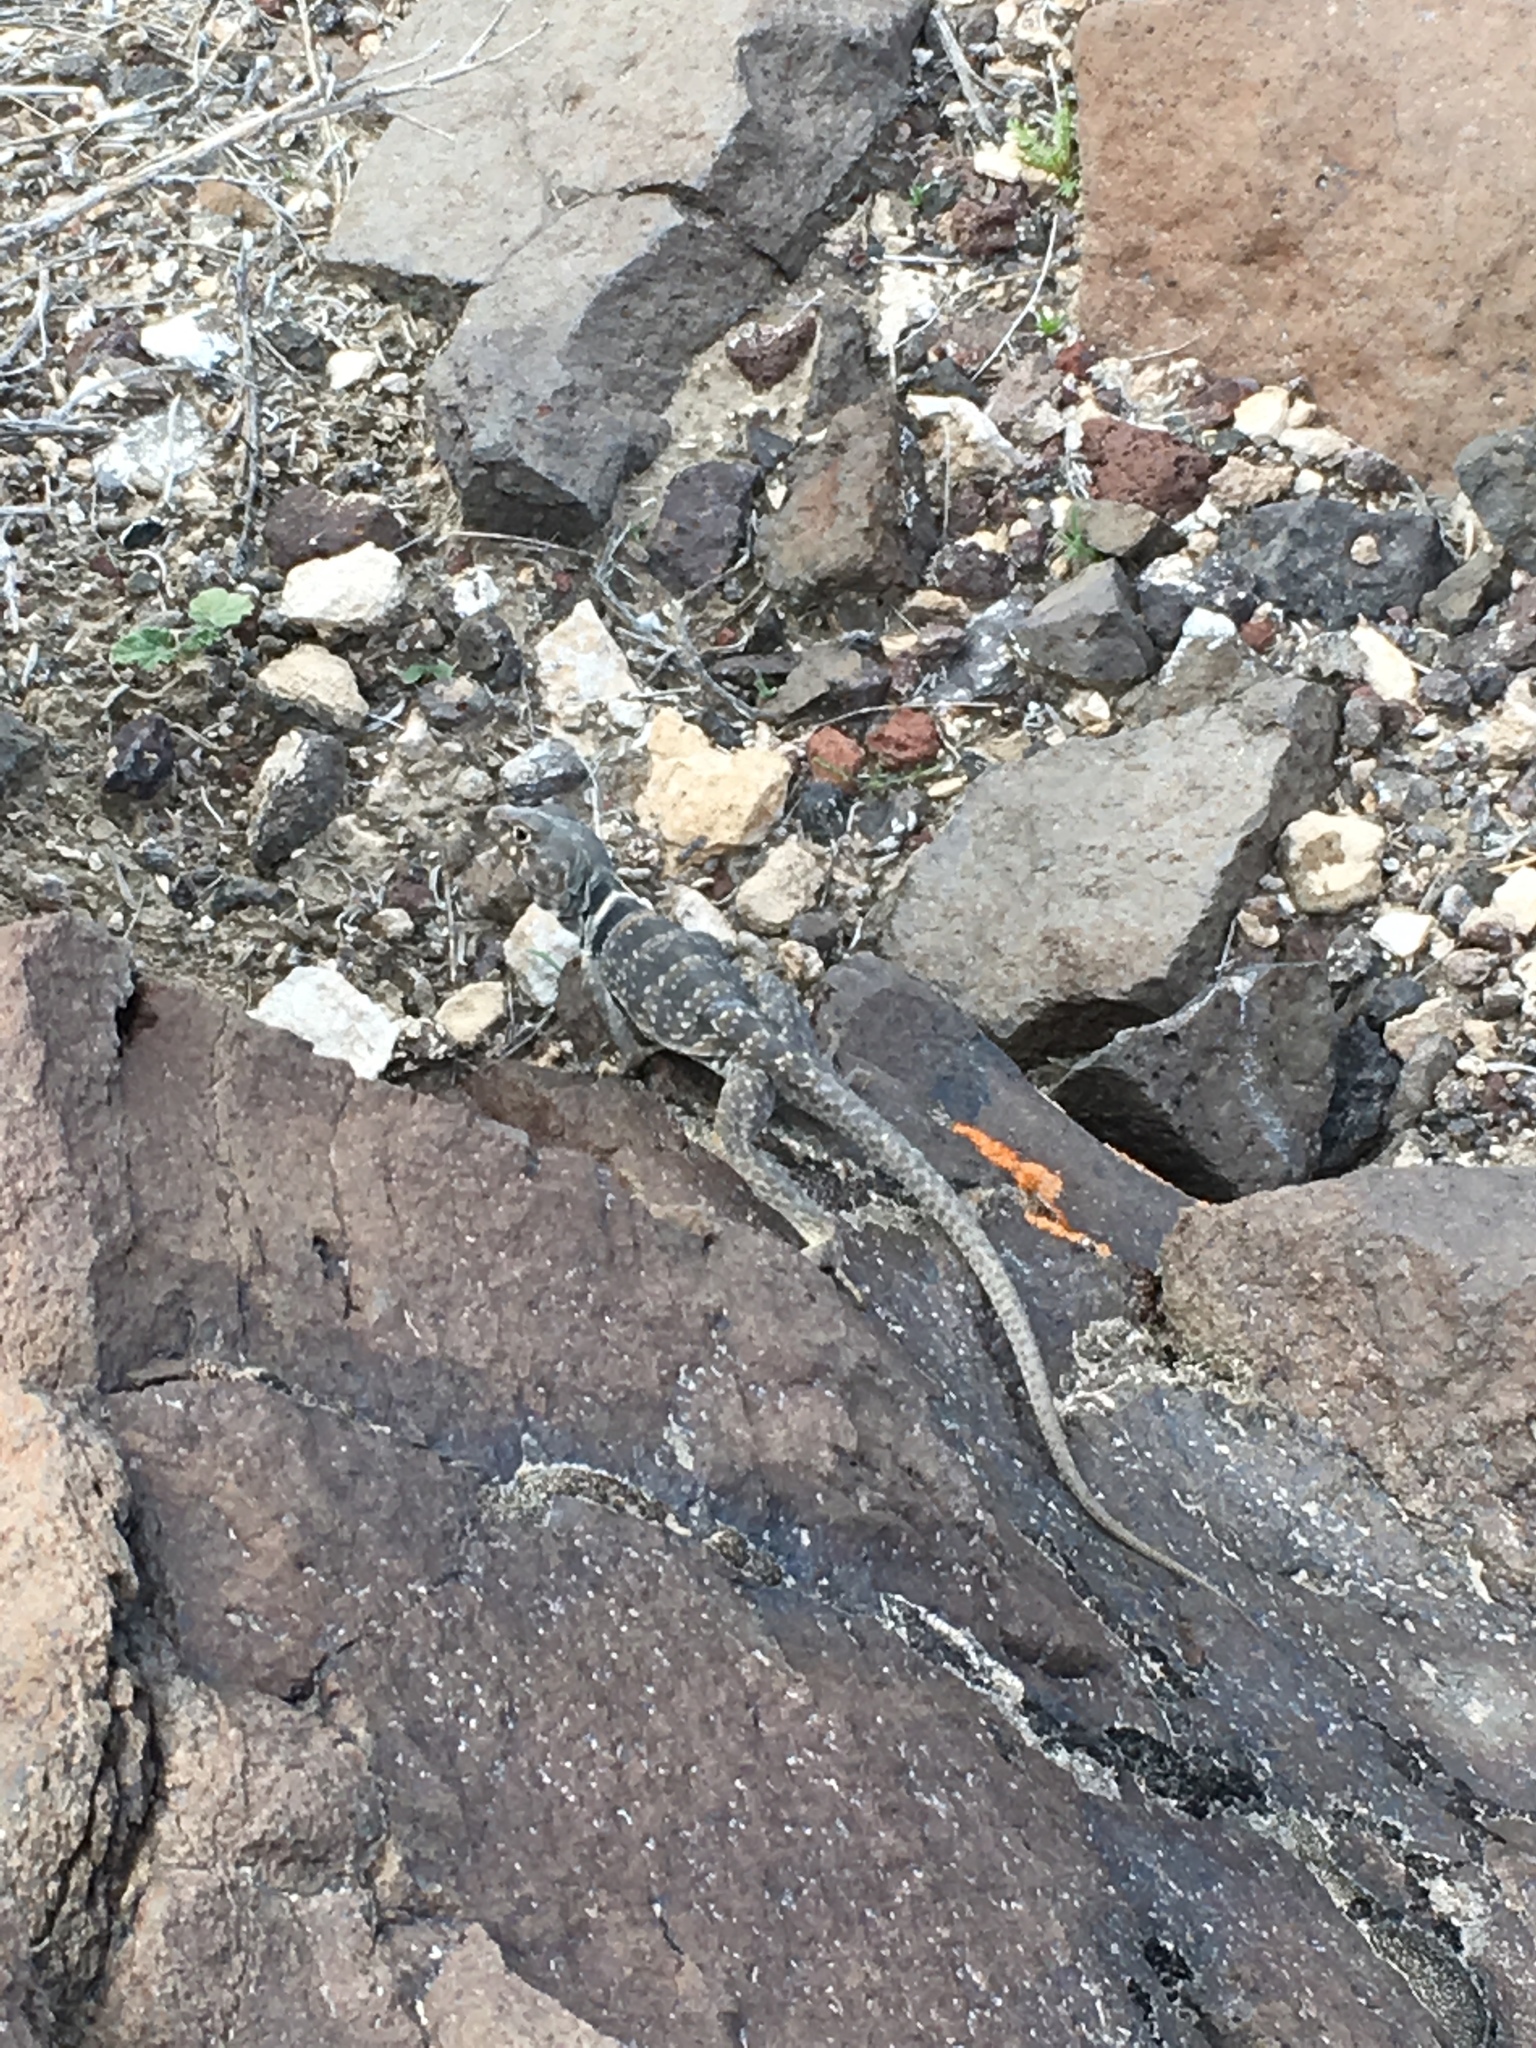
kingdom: Animalia
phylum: Chordata
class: Squamata
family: Crotaphytidae
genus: Crotaphytus
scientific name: Crotaphytus bicinctores
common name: Mojave black-collared lizard
